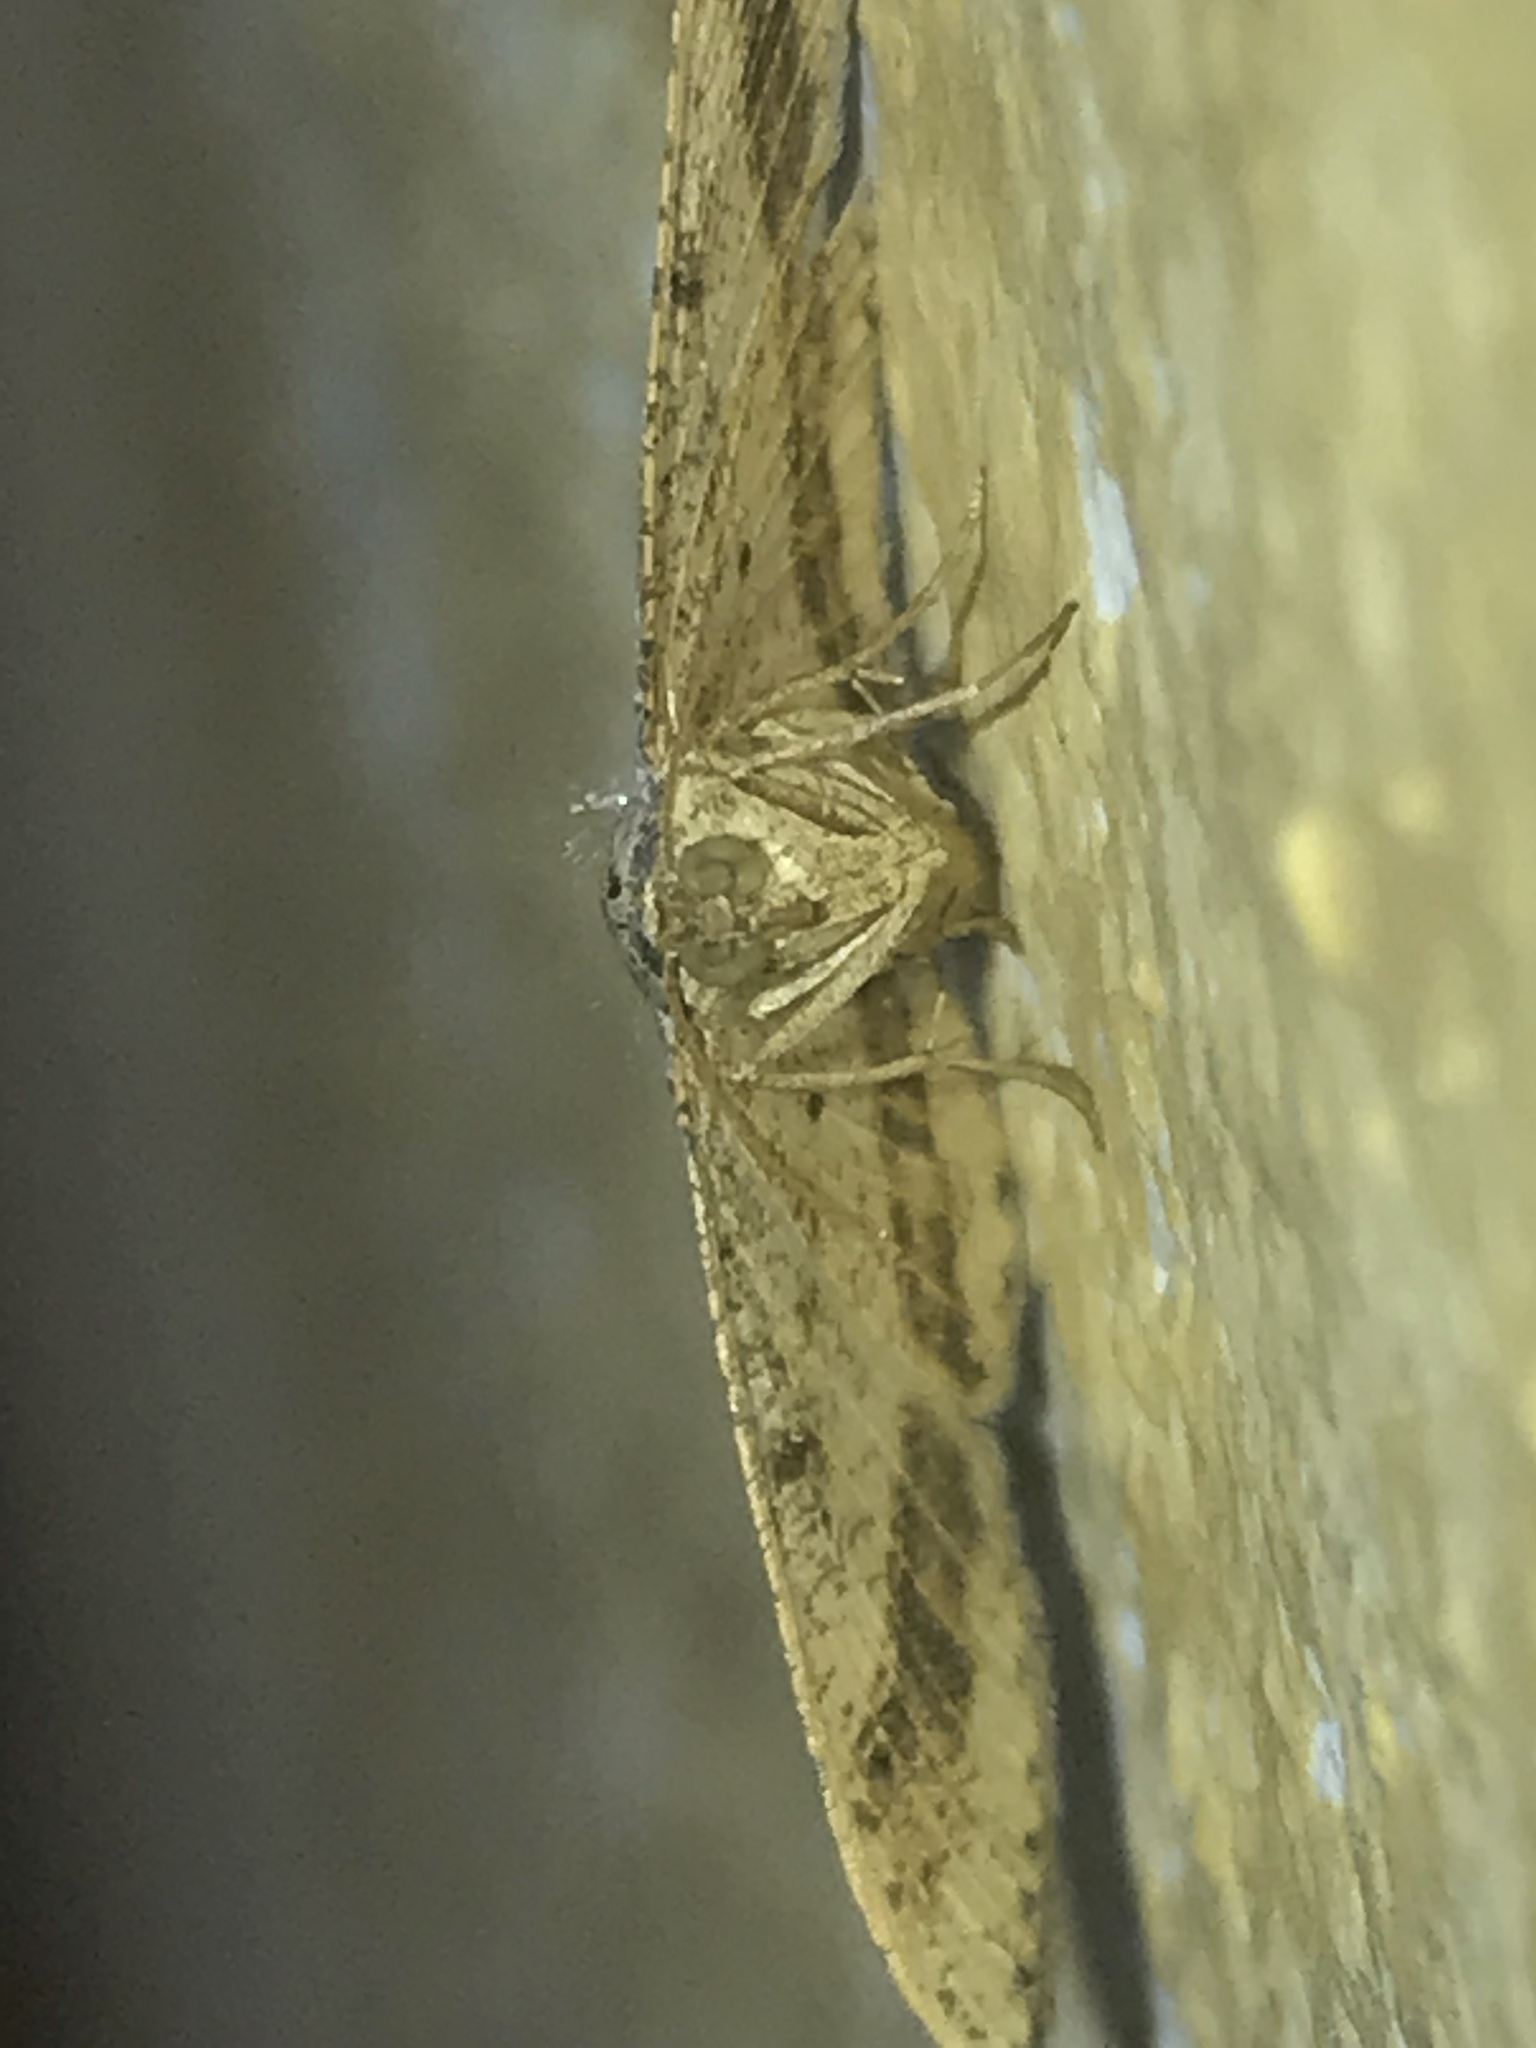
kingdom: Animalia
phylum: Arthropoda
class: Insecta
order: Lepidoptera
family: Geometridae
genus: Macaria
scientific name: Macaria abydata
